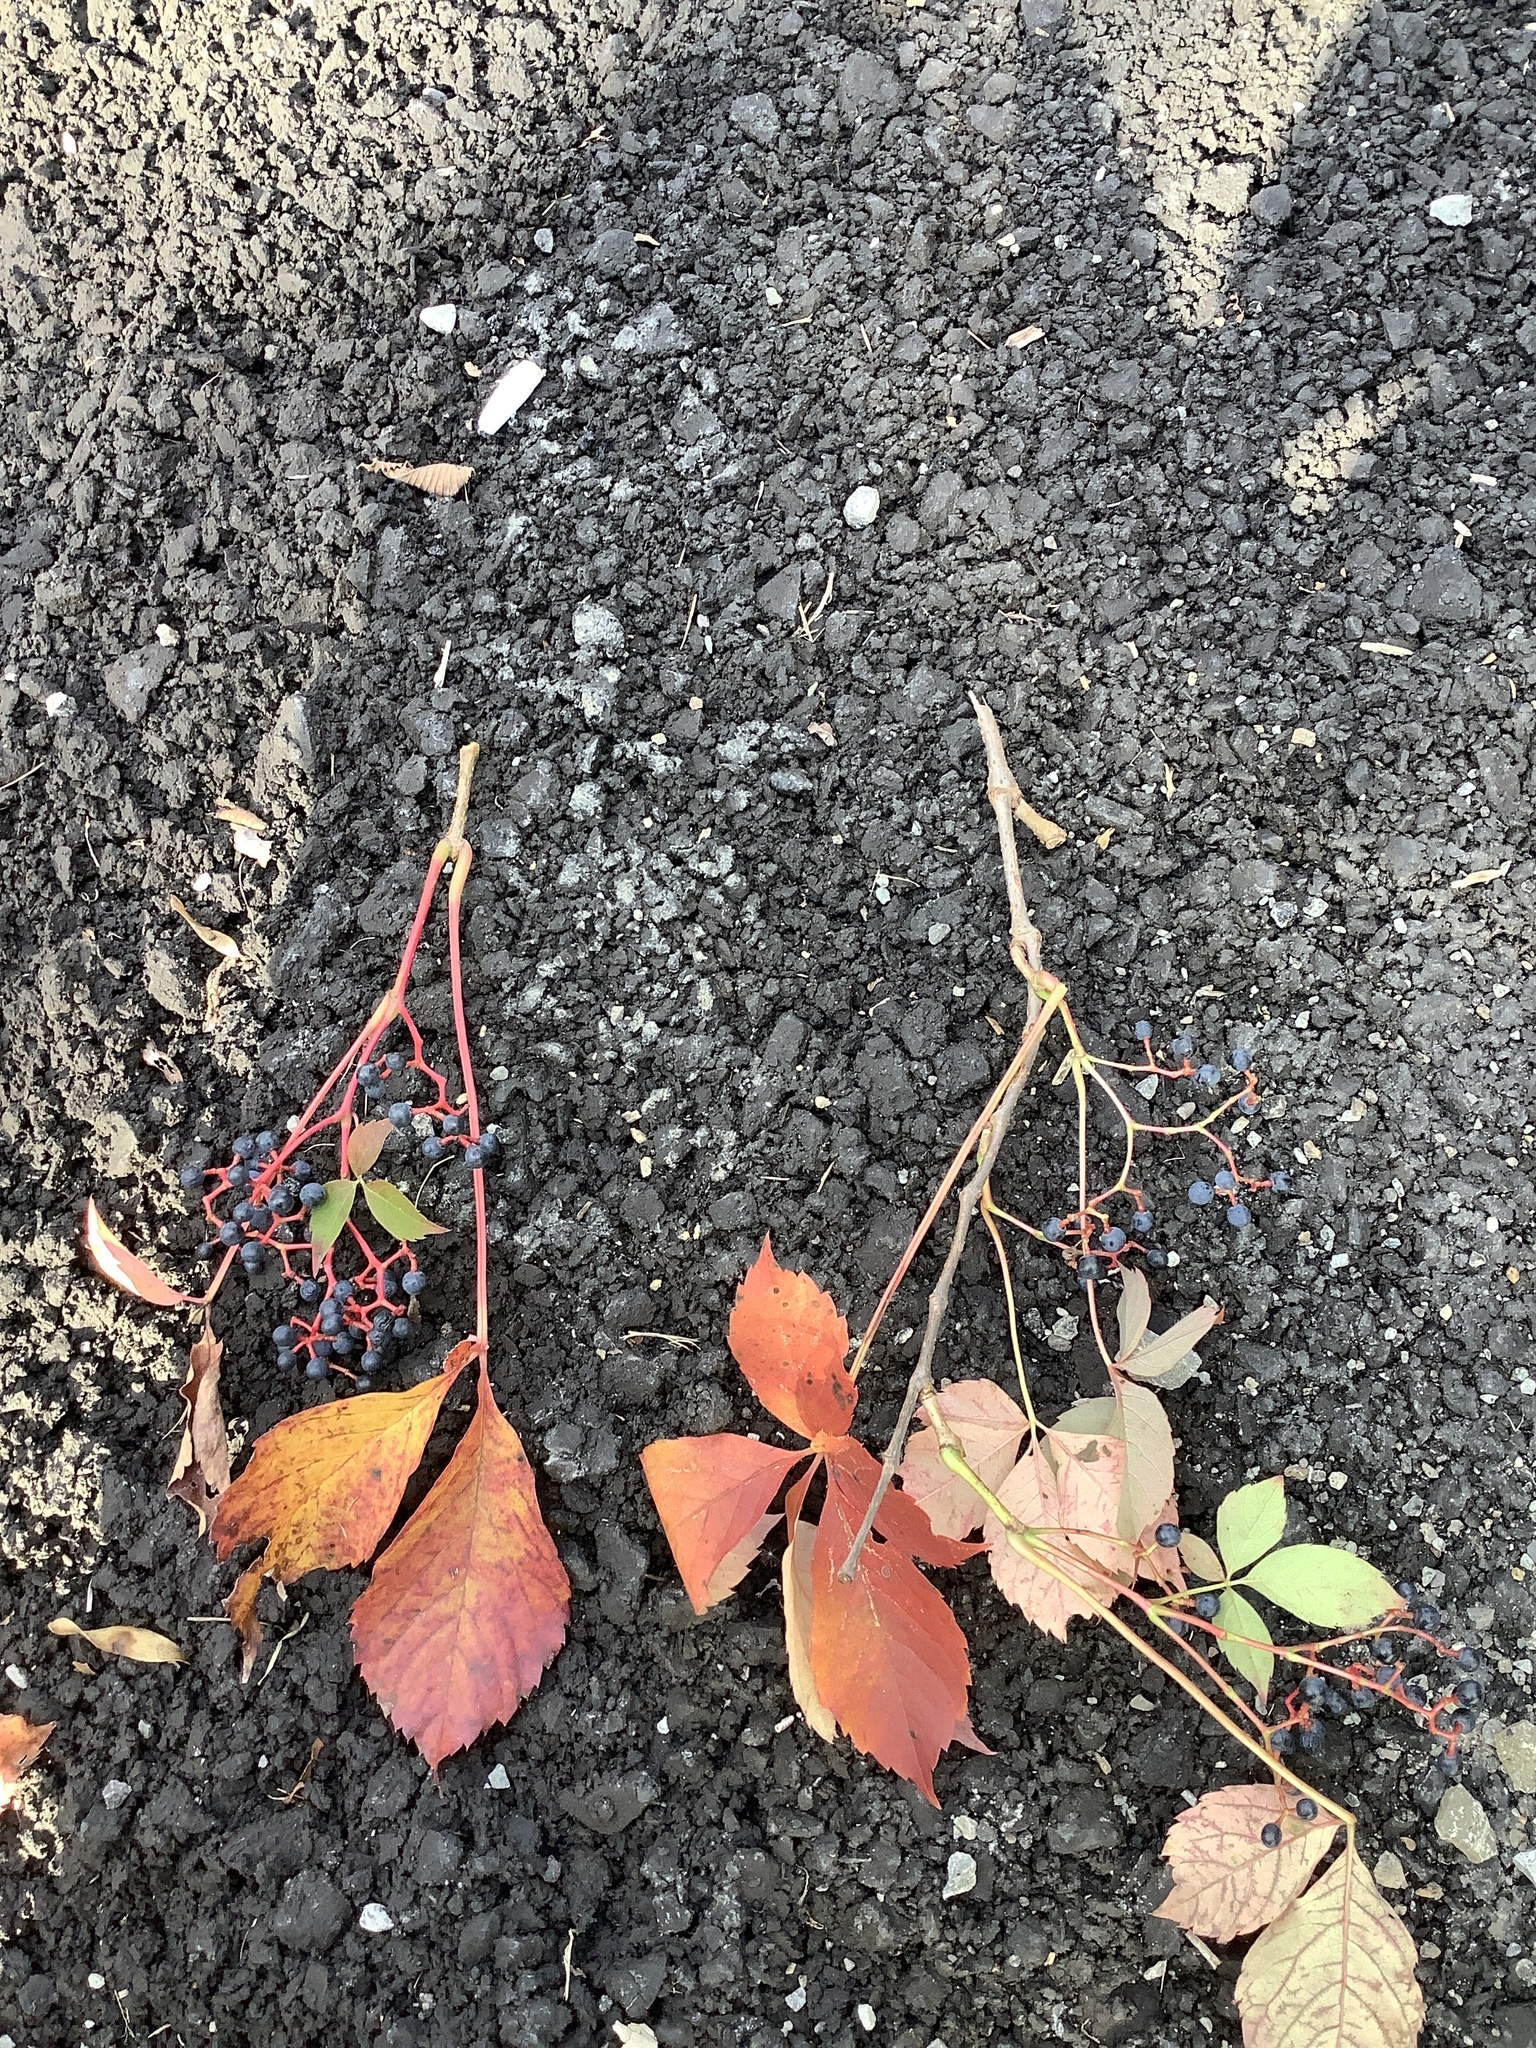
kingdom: Plantae
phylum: Tracheophyta
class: Magnoliopsida
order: Vitales
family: Vitaceae
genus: Parthenocissus
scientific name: Parthenocissus quinquefolia
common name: Virginia-creeper
